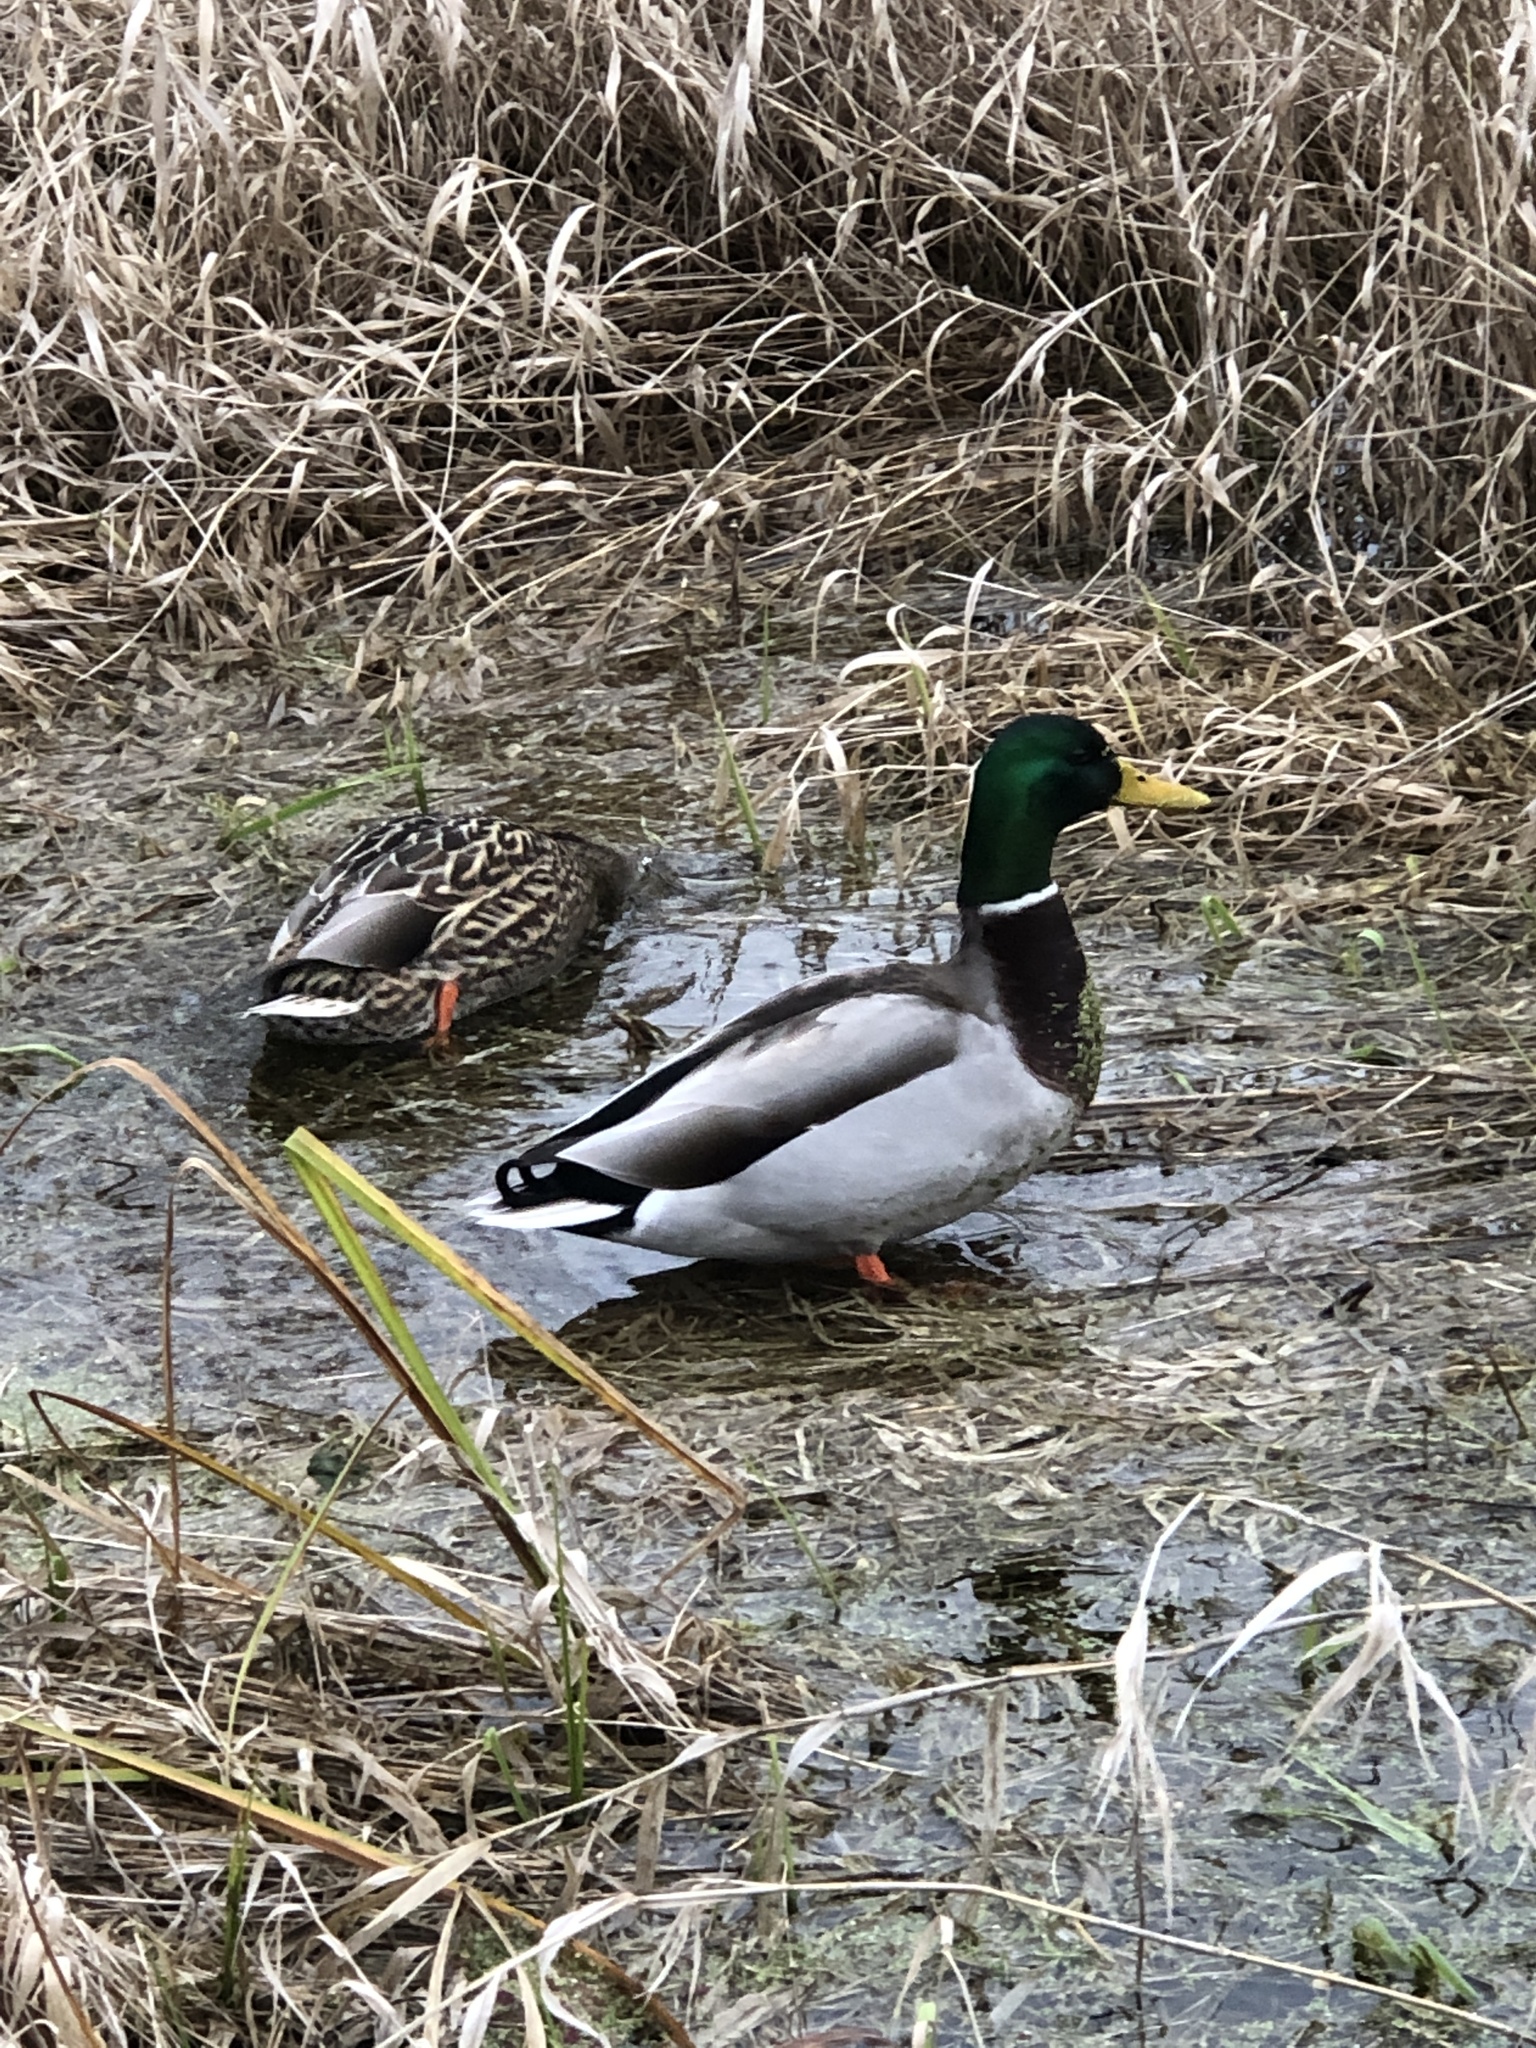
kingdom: Animalia
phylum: Chordata
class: Aves
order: Anseriformes
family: Anatidae
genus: Anas
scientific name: Anas platyrhynchos
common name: Mallard
